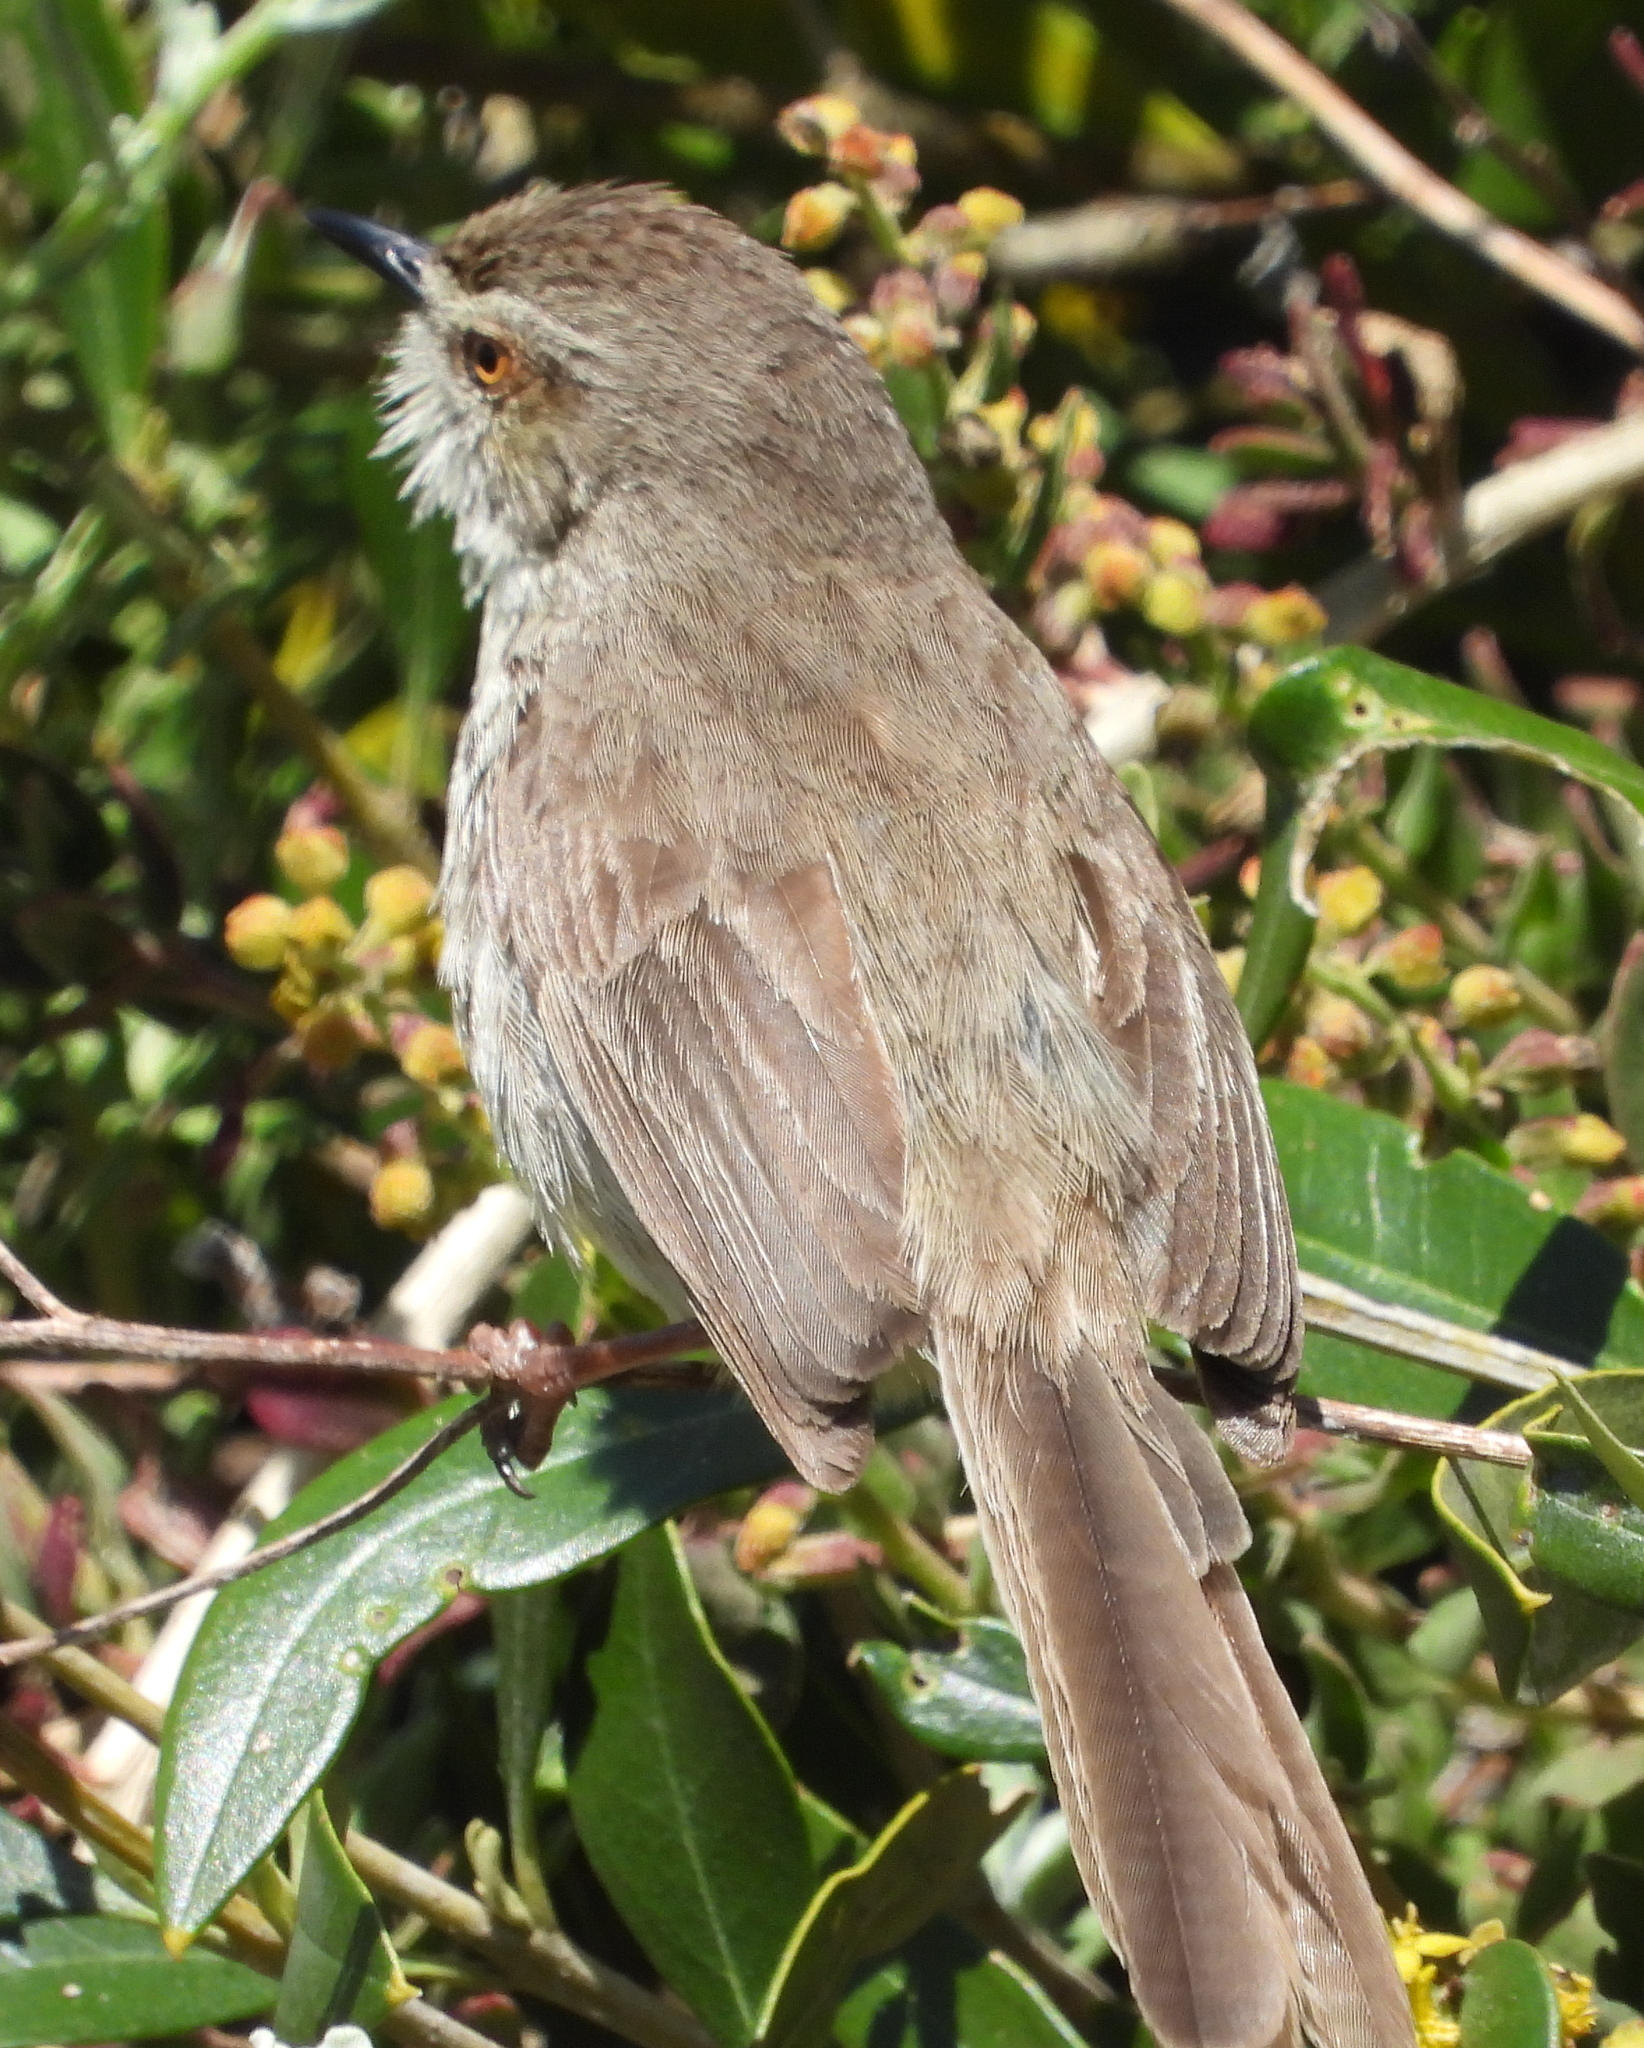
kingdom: Animalia
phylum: Chordata
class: Aves
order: Passeriformes
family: Cisticolidae
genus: Prinia
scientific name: Prinia maculosa
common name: Karoo prinia
